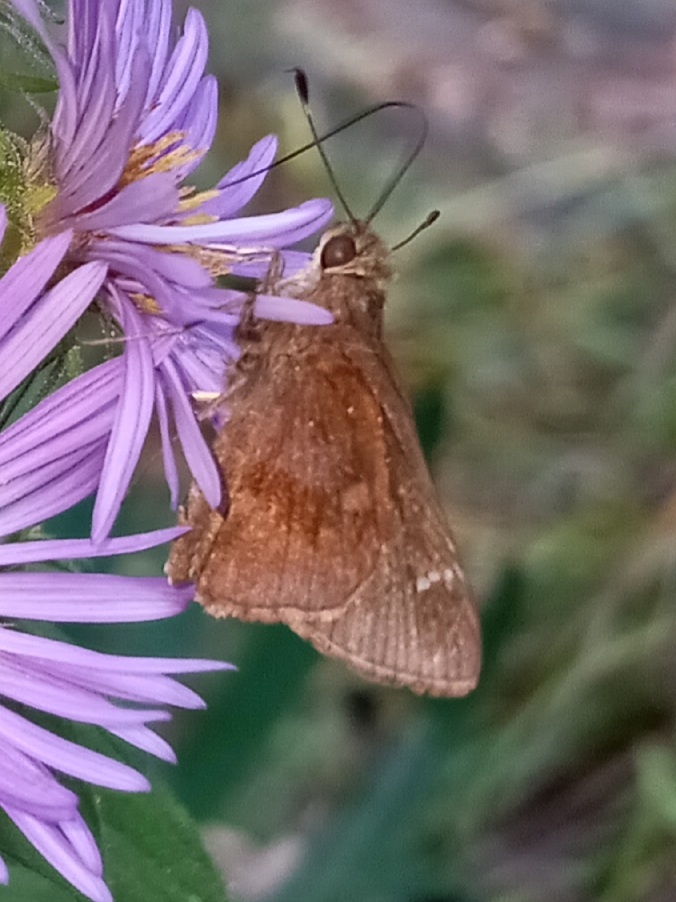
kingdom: Animalia
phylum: Arthropoda
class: Insecta
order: Lepidoptera
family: Hesperiidae
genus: Lerema
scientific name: Lerema accius
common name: Clouded skipper
